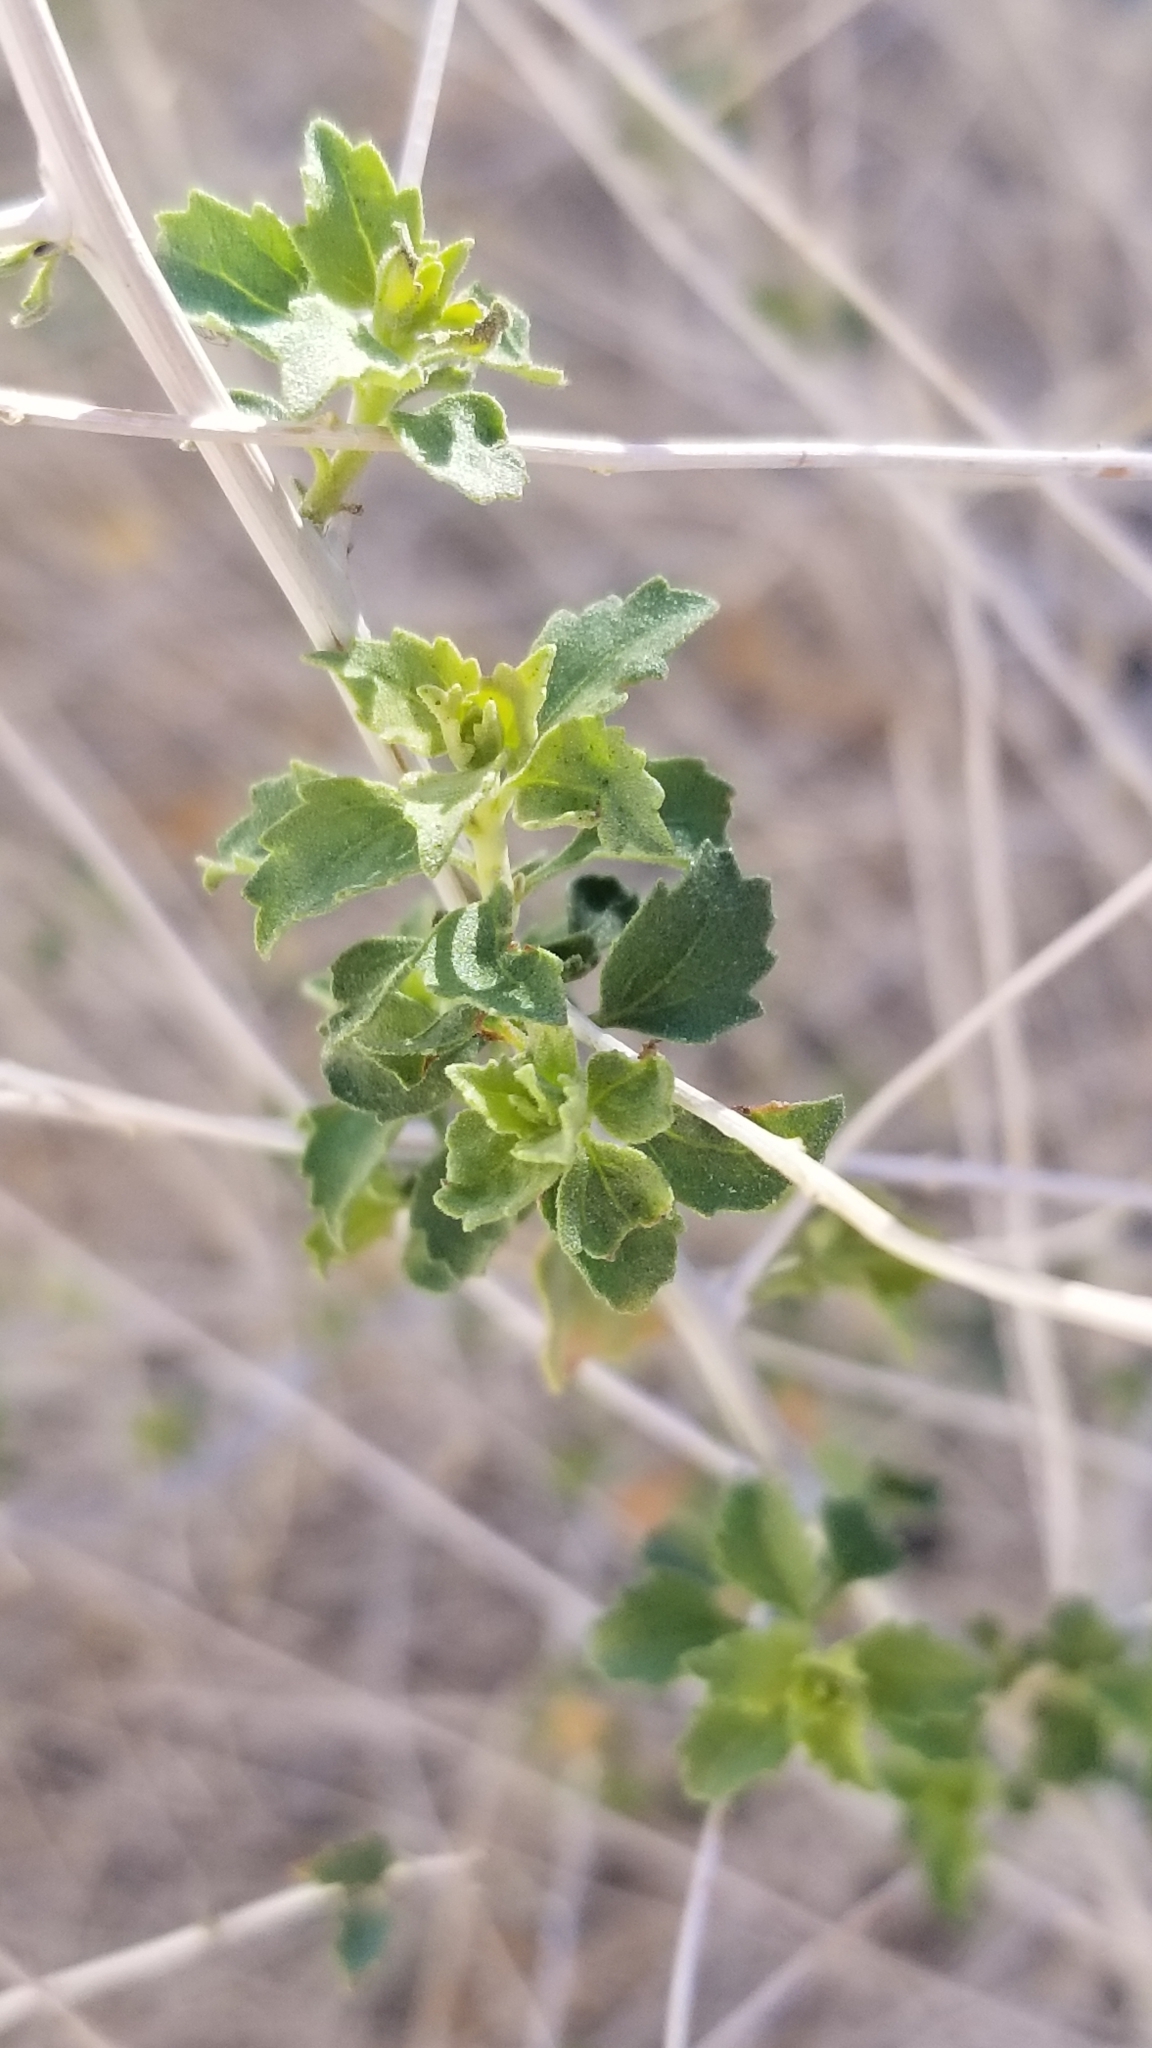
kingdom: Plantae
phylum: Tracheophyta
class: Magnoliopsida
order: Asterales
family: Asteraceae
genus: Brickellia
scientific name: Brickellia desertorum
